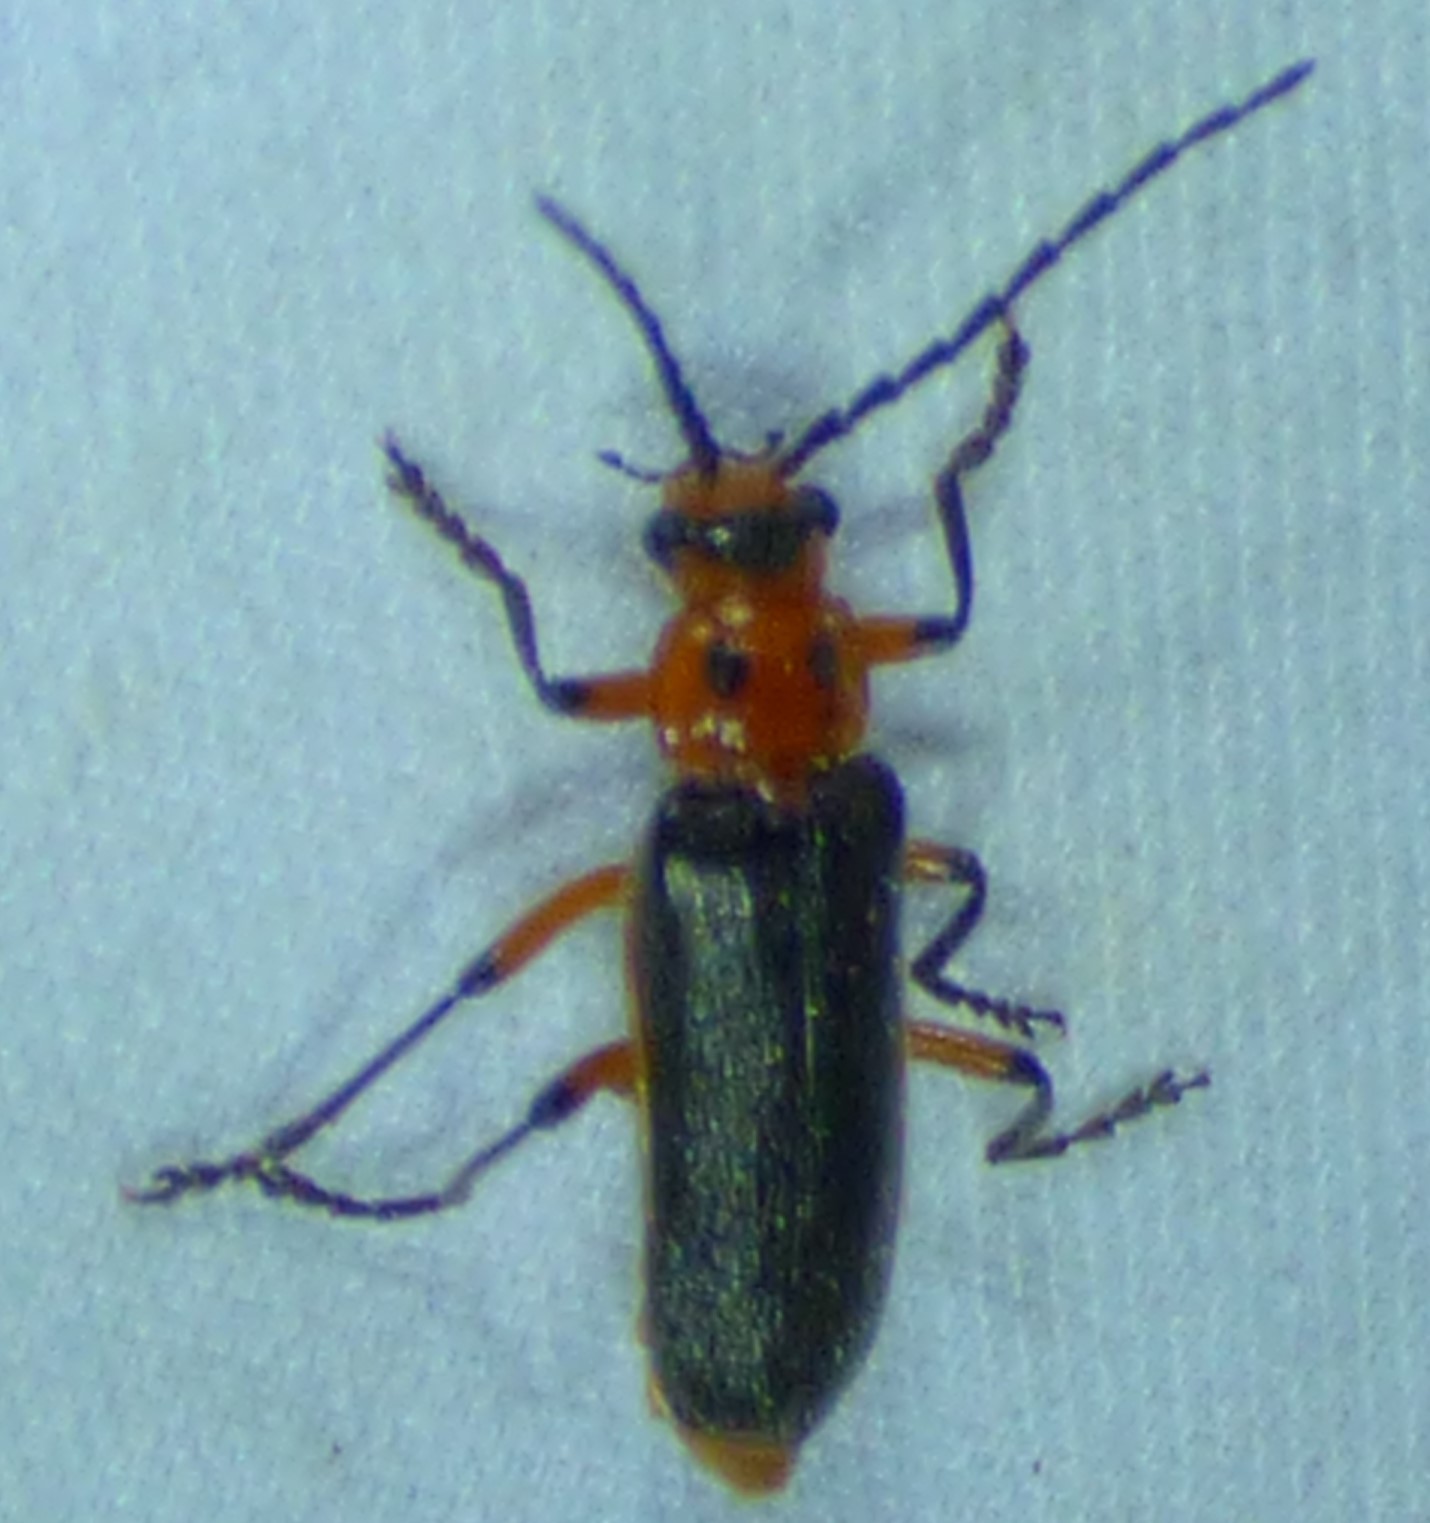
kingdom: Animalia
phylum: Arthropoda
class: Insecta
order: Coleoptera
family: Cantharidae
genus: Atalantycha
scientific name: Atalantycha bilineata
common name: Two-lined leatherwing
